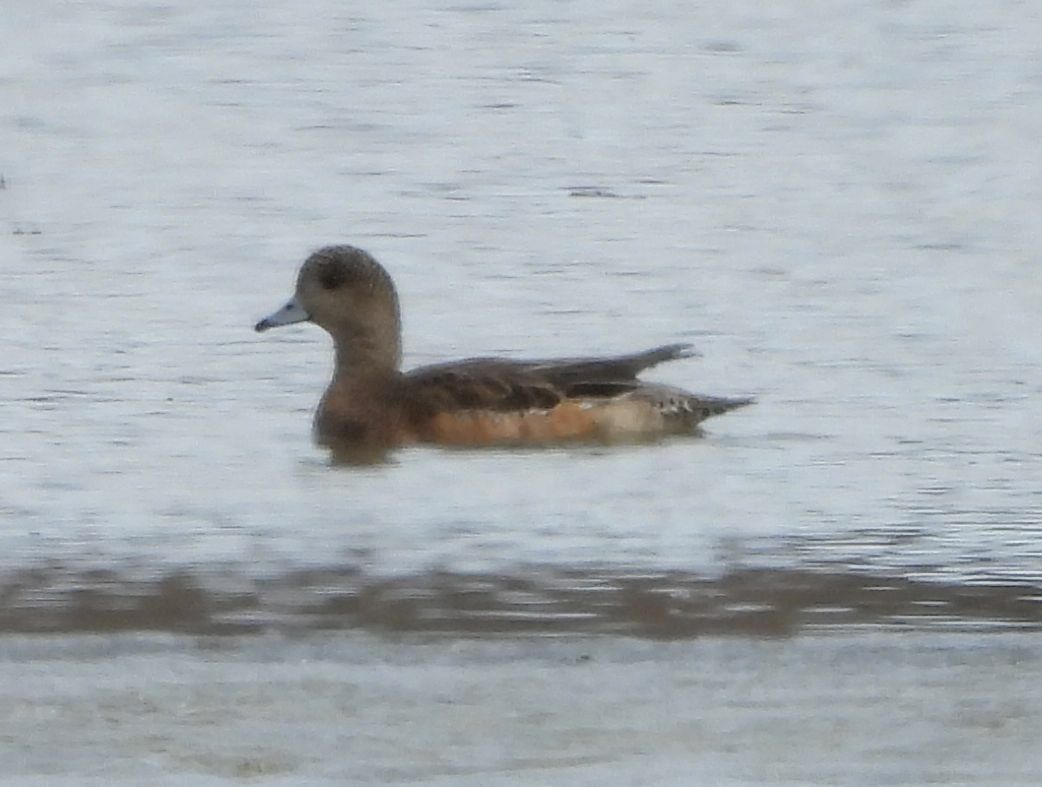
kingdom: Animalia
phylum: Chordata
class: Aves
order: Anseriformes
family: Anatidae
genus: Mareca
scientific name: Mareca americana
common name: American wigeon
